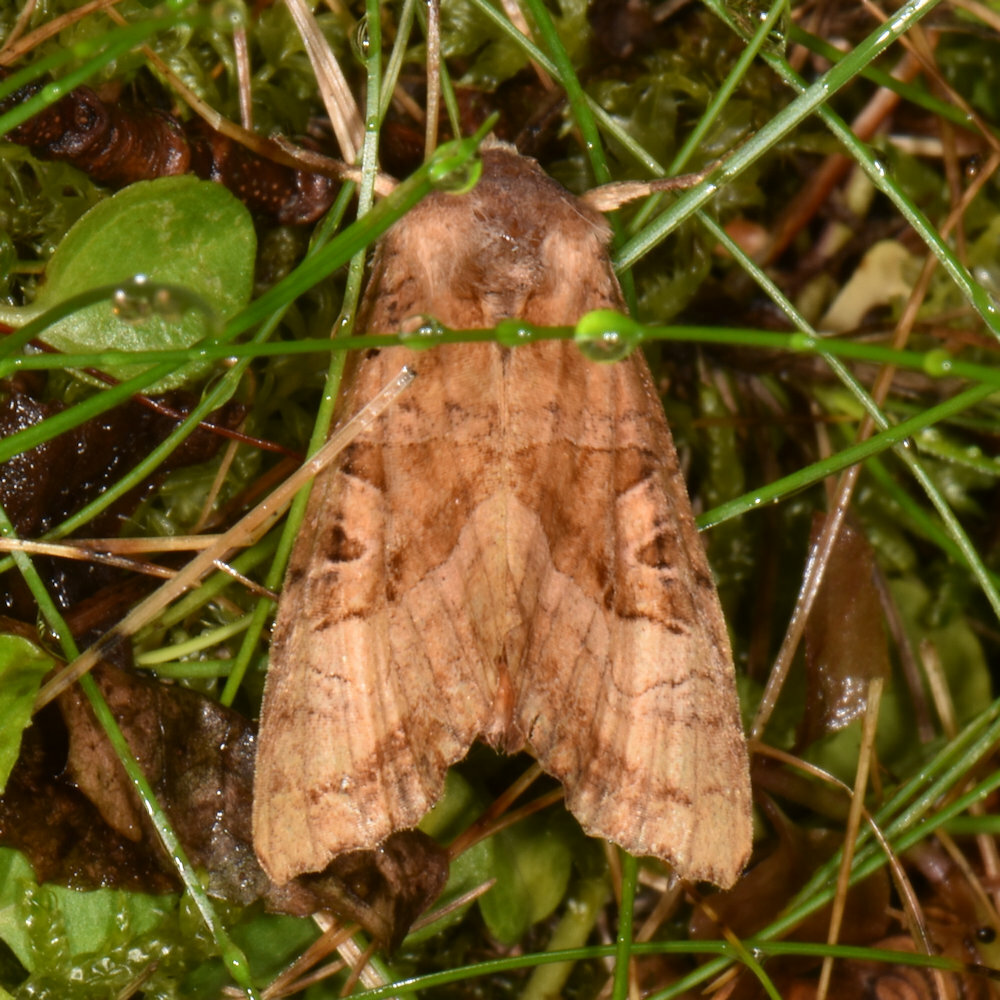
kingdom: Animalia
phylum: Arthropoda
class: Insecta
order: Lepidoptera
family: Noctuidae
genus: Phlogophora
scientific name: Phlogophora periculosa
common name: Brown angle shades
